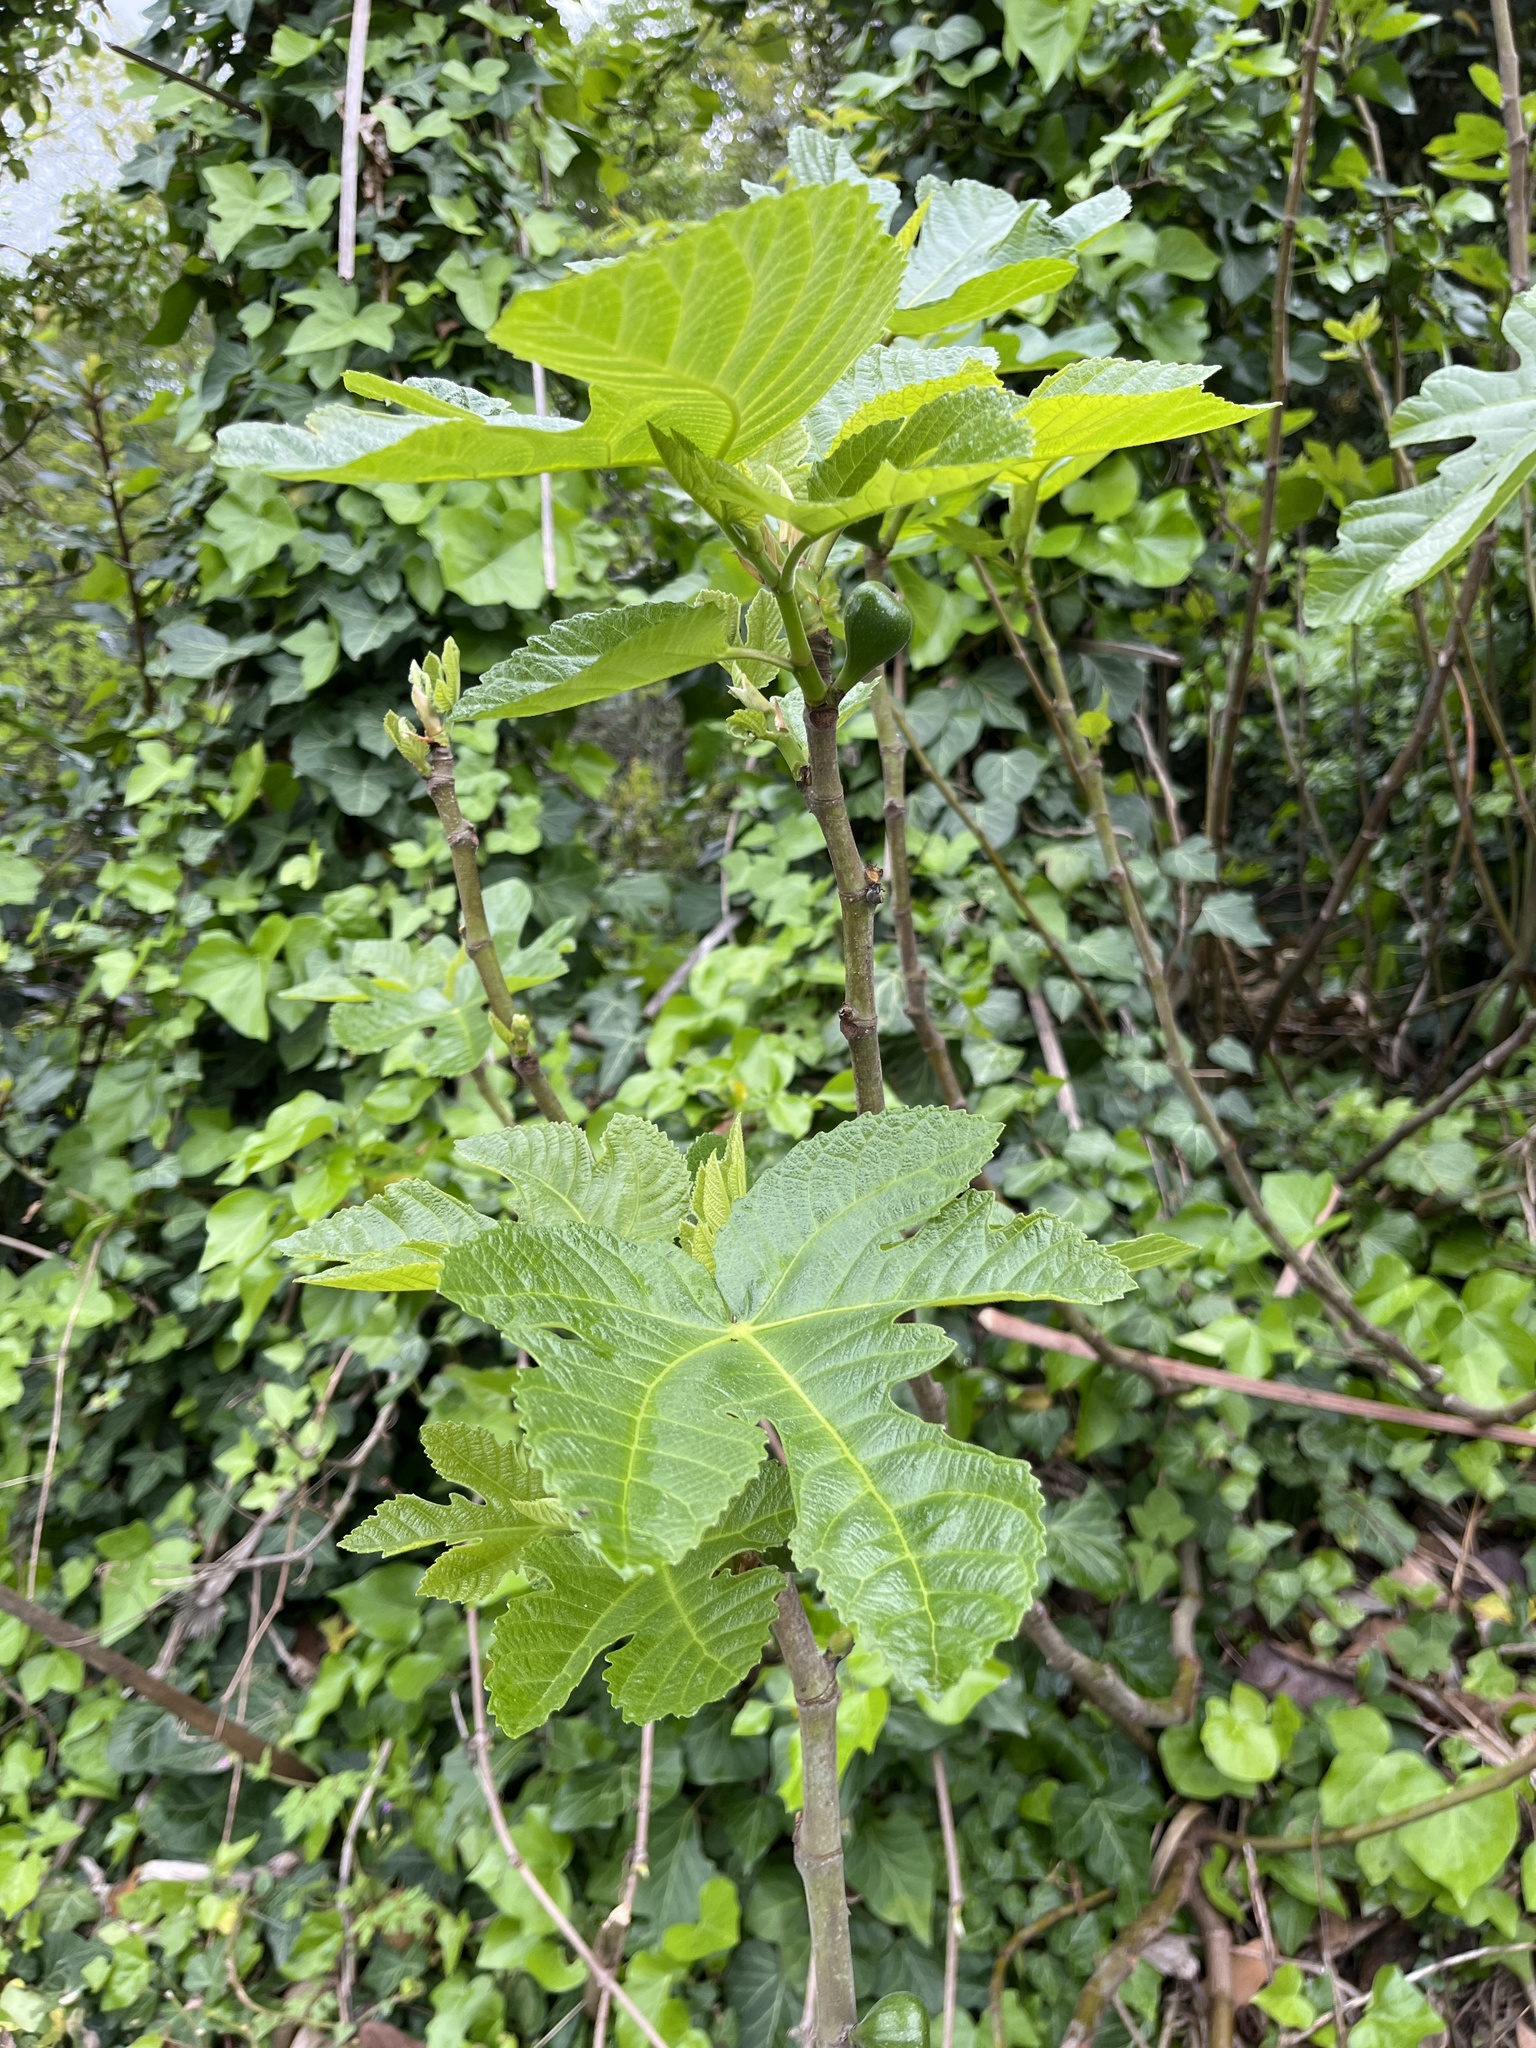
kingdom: Plantae
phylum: Tracheophyta
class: Magnoliopsida
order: Rosales
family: Moraceae
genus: Ficus
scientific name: Ficus carica
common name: Fig
